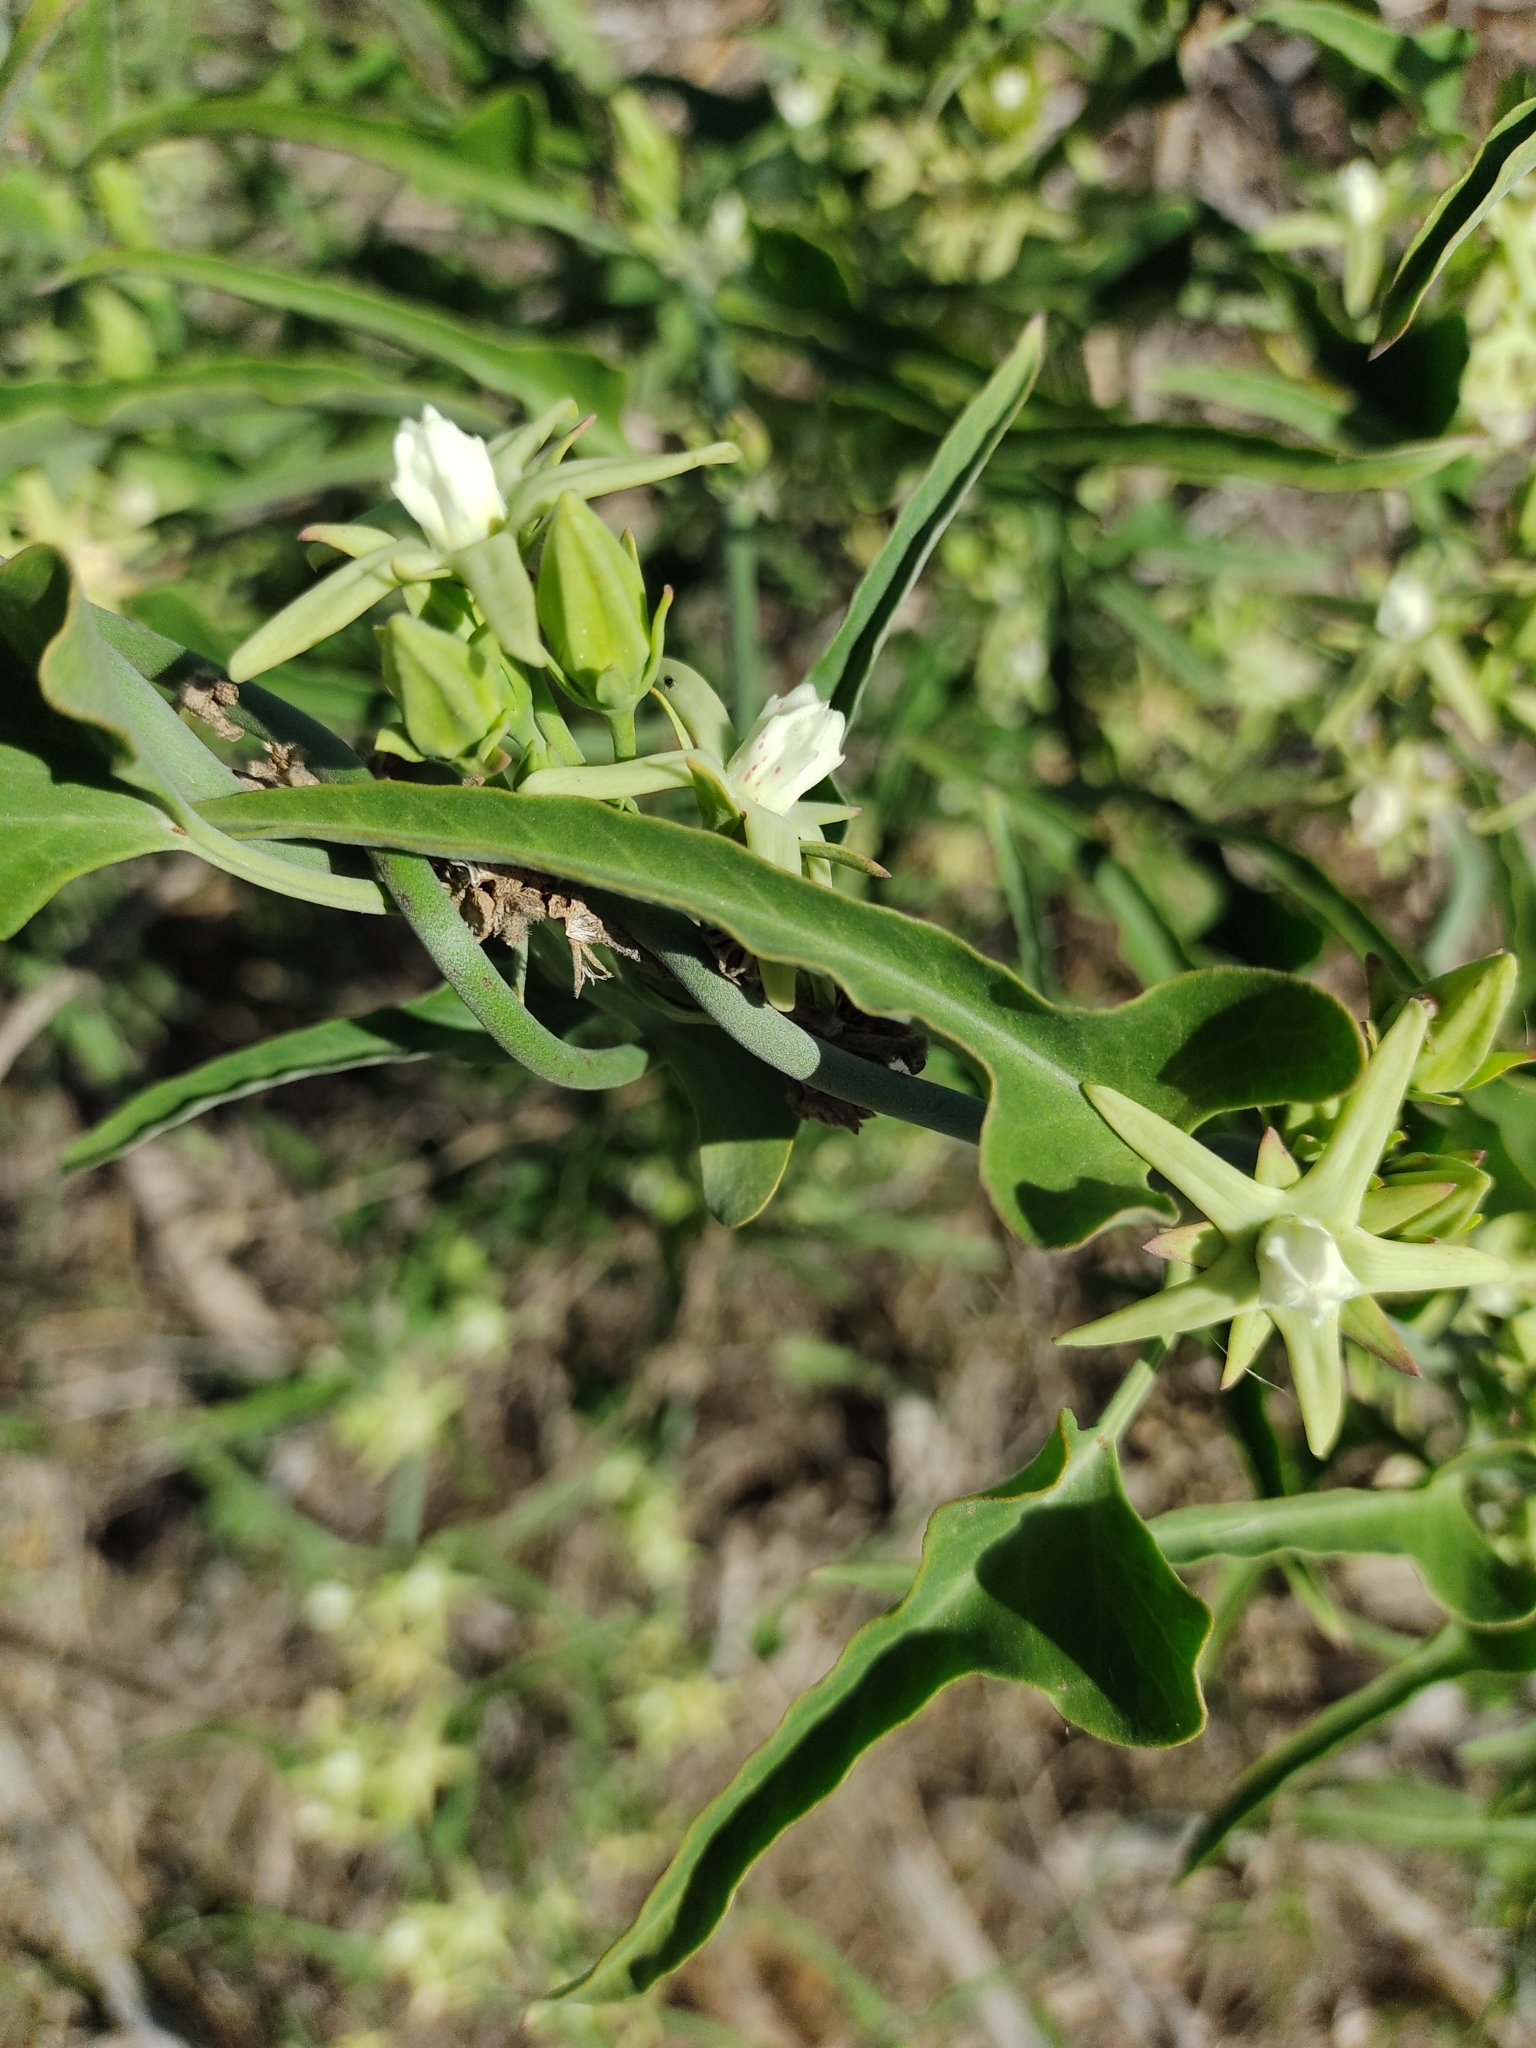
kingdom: Plantae
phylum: Tracheophyta
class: Magnoliopsida
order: Gentianales
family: Apocynaceae
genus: Araujia
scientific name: Araujia odorata
